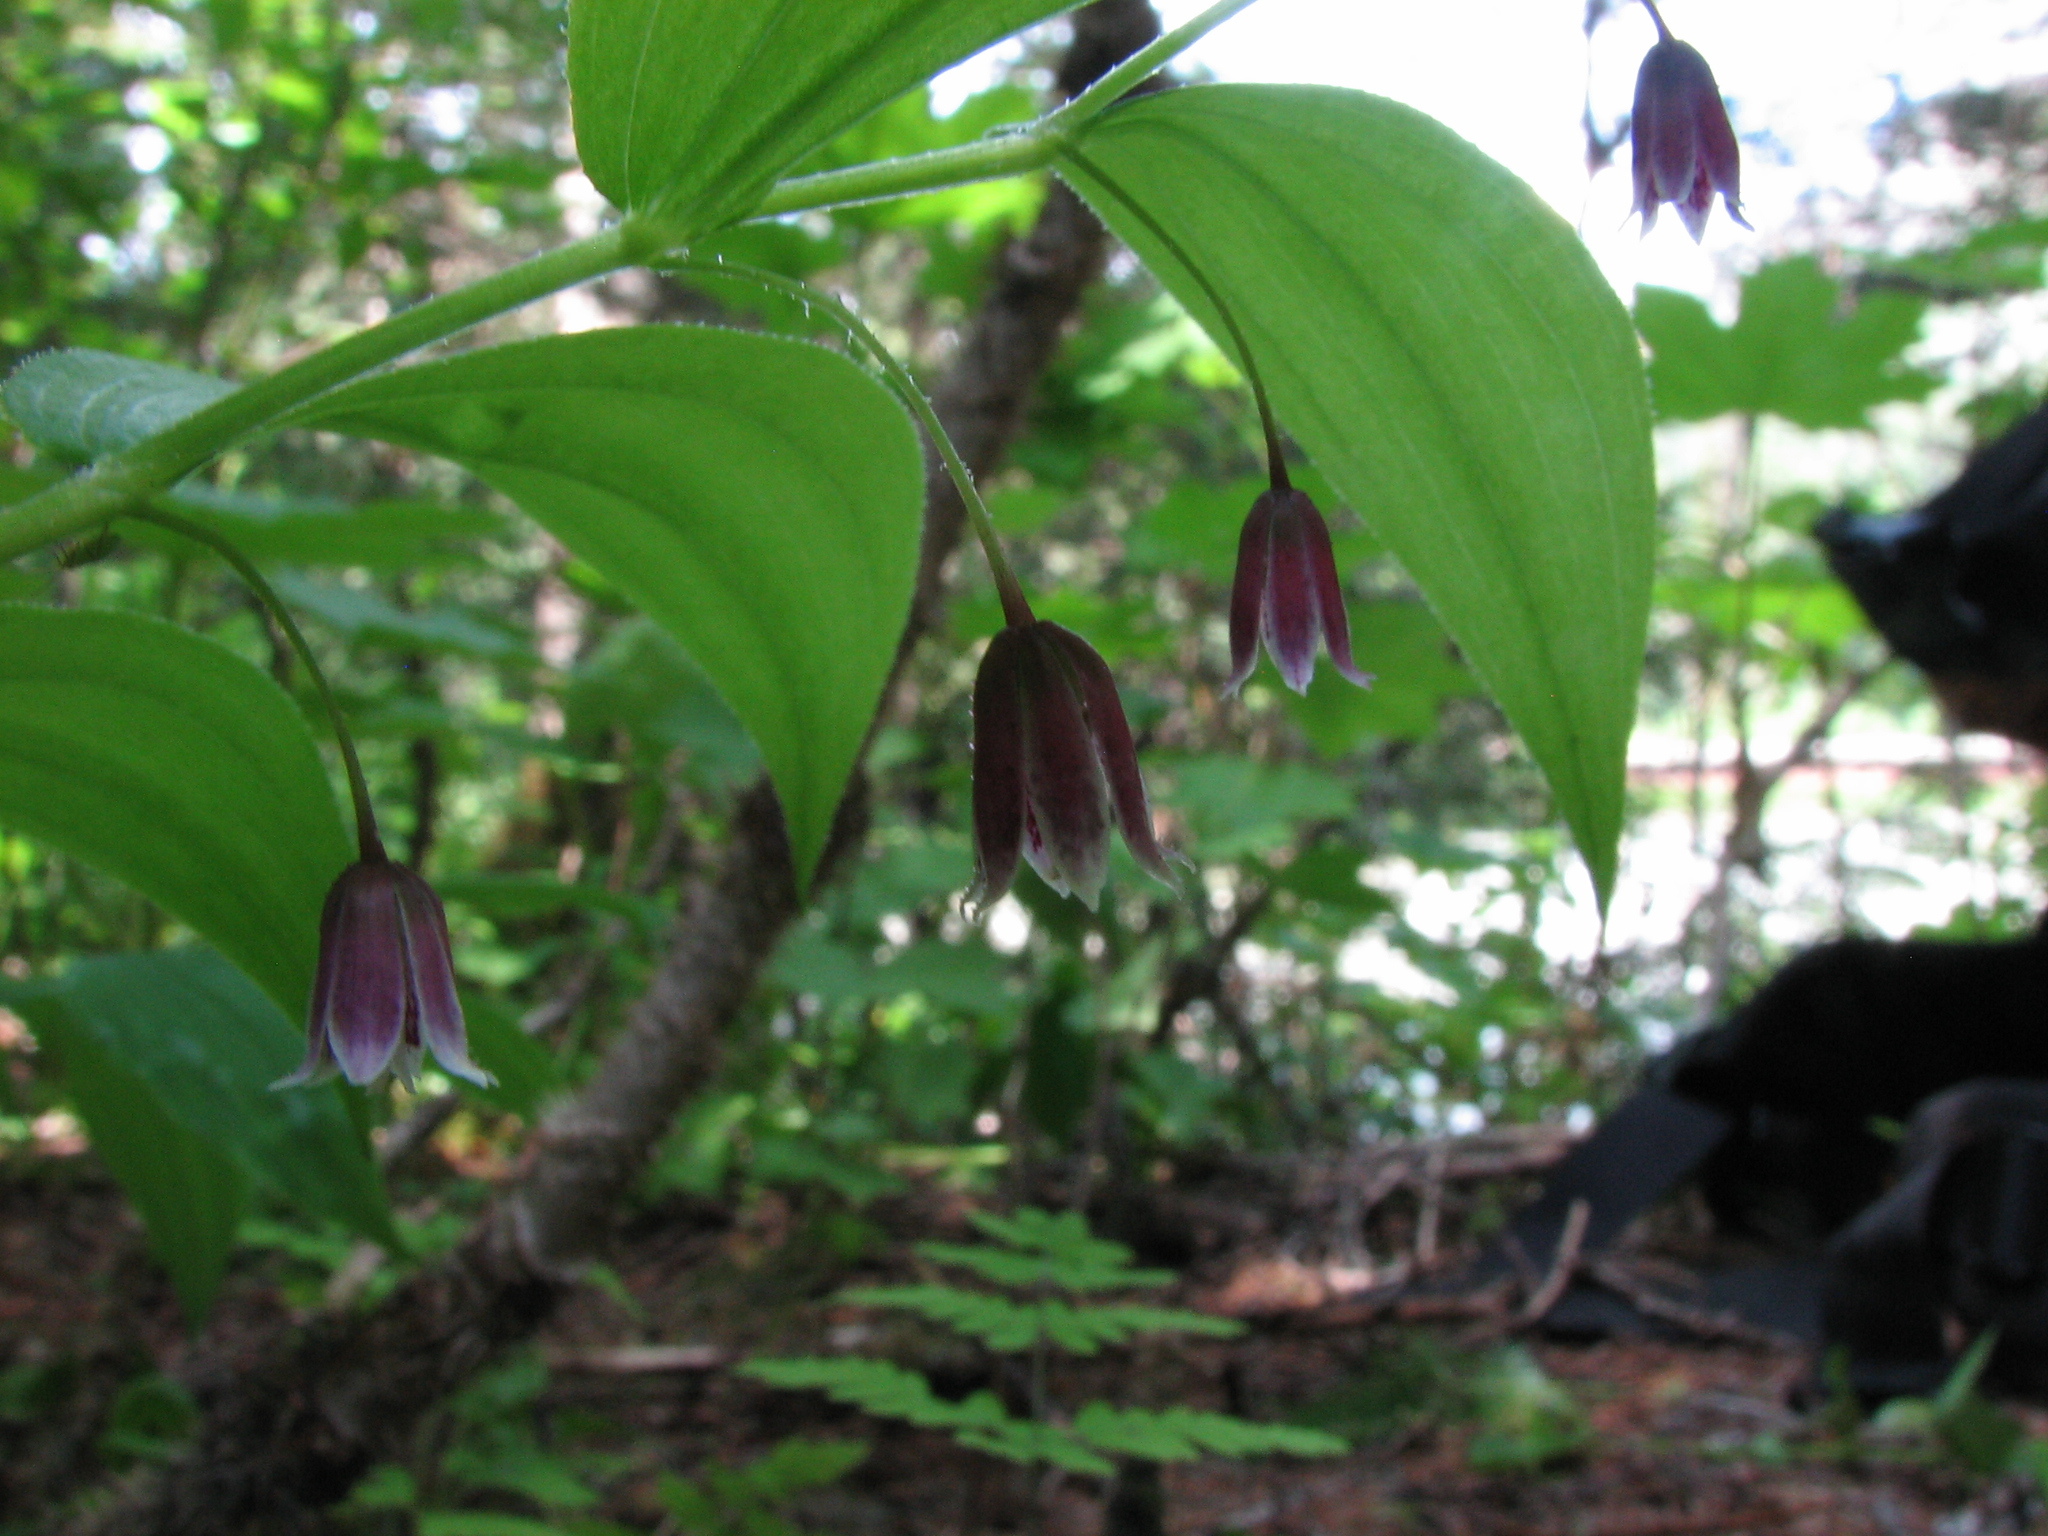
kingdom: Plantae
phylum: Tracheophyta
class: Liliopsida
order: Liliales
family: Liliaceae
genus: Streptopus
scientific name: Streptopus lanceolatus
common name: Rose mandarin
